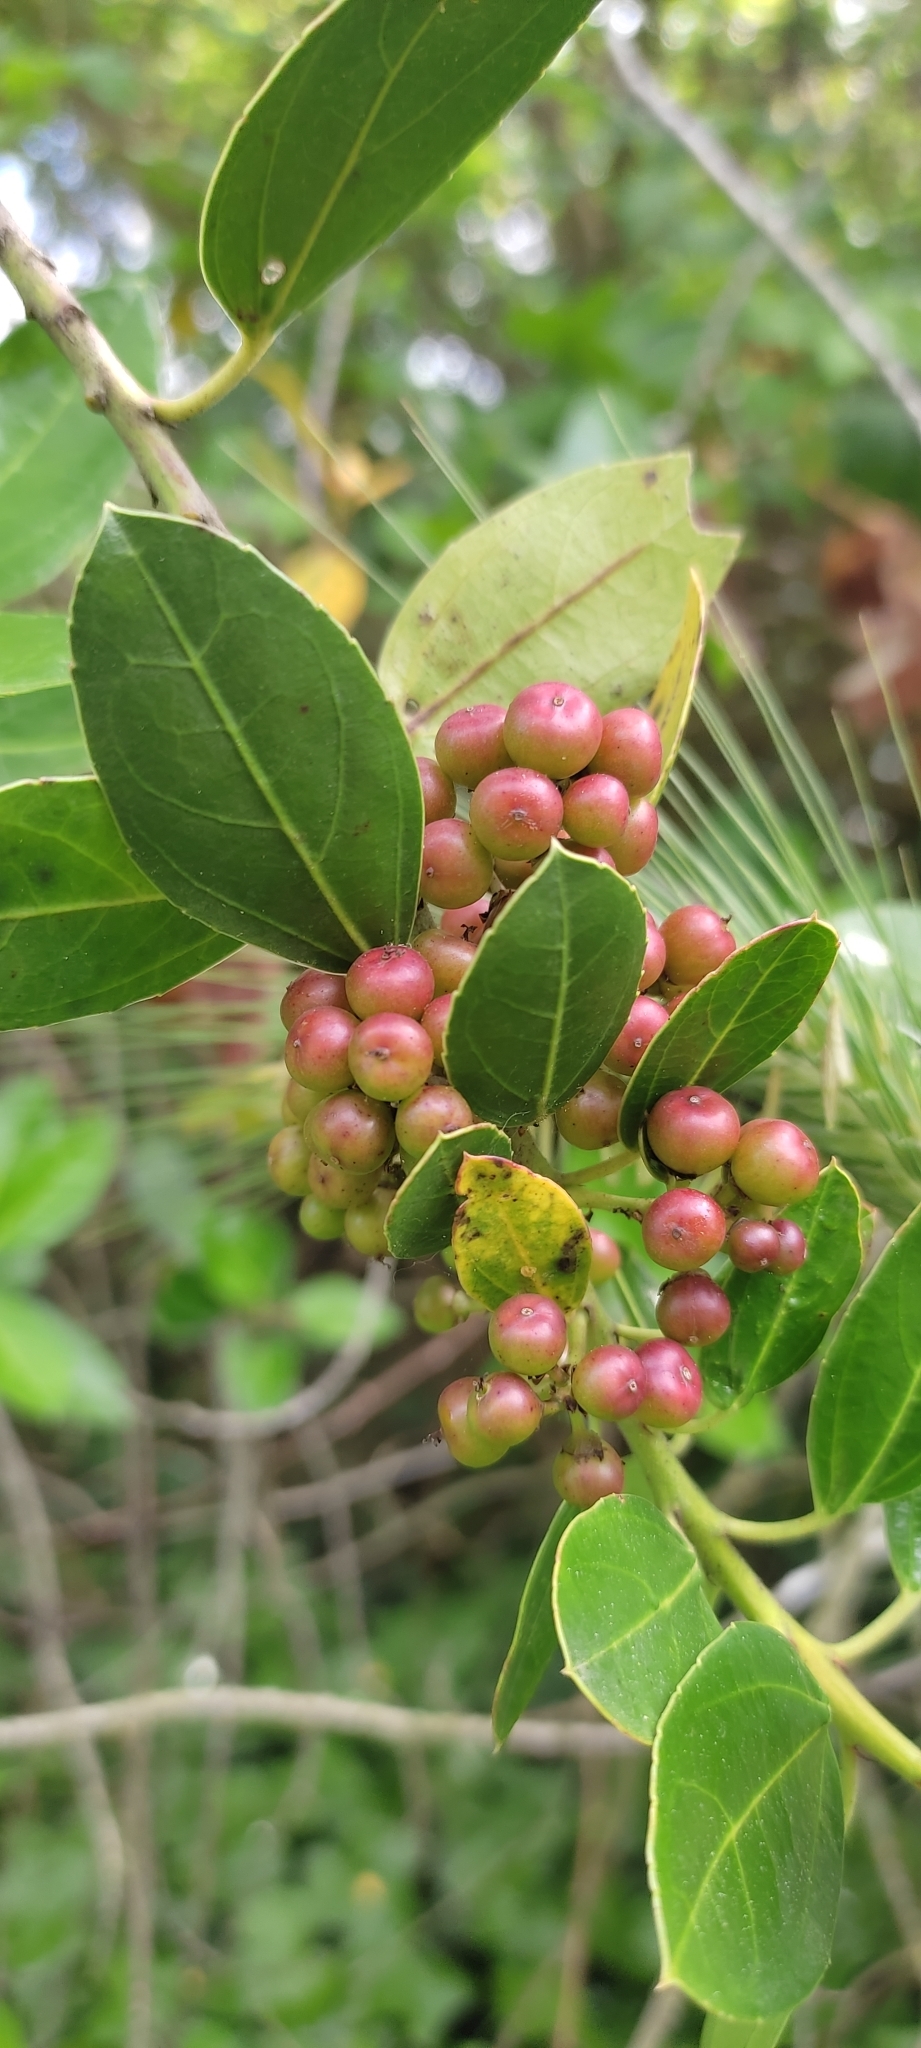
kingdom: Plantae
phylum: Tracheophyta
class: Magnoliopsida
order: Rosales
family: Rhamnaceae
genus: Rhamnus
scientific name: Rhamnus alaternus
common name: Mediterranean buckthorn
